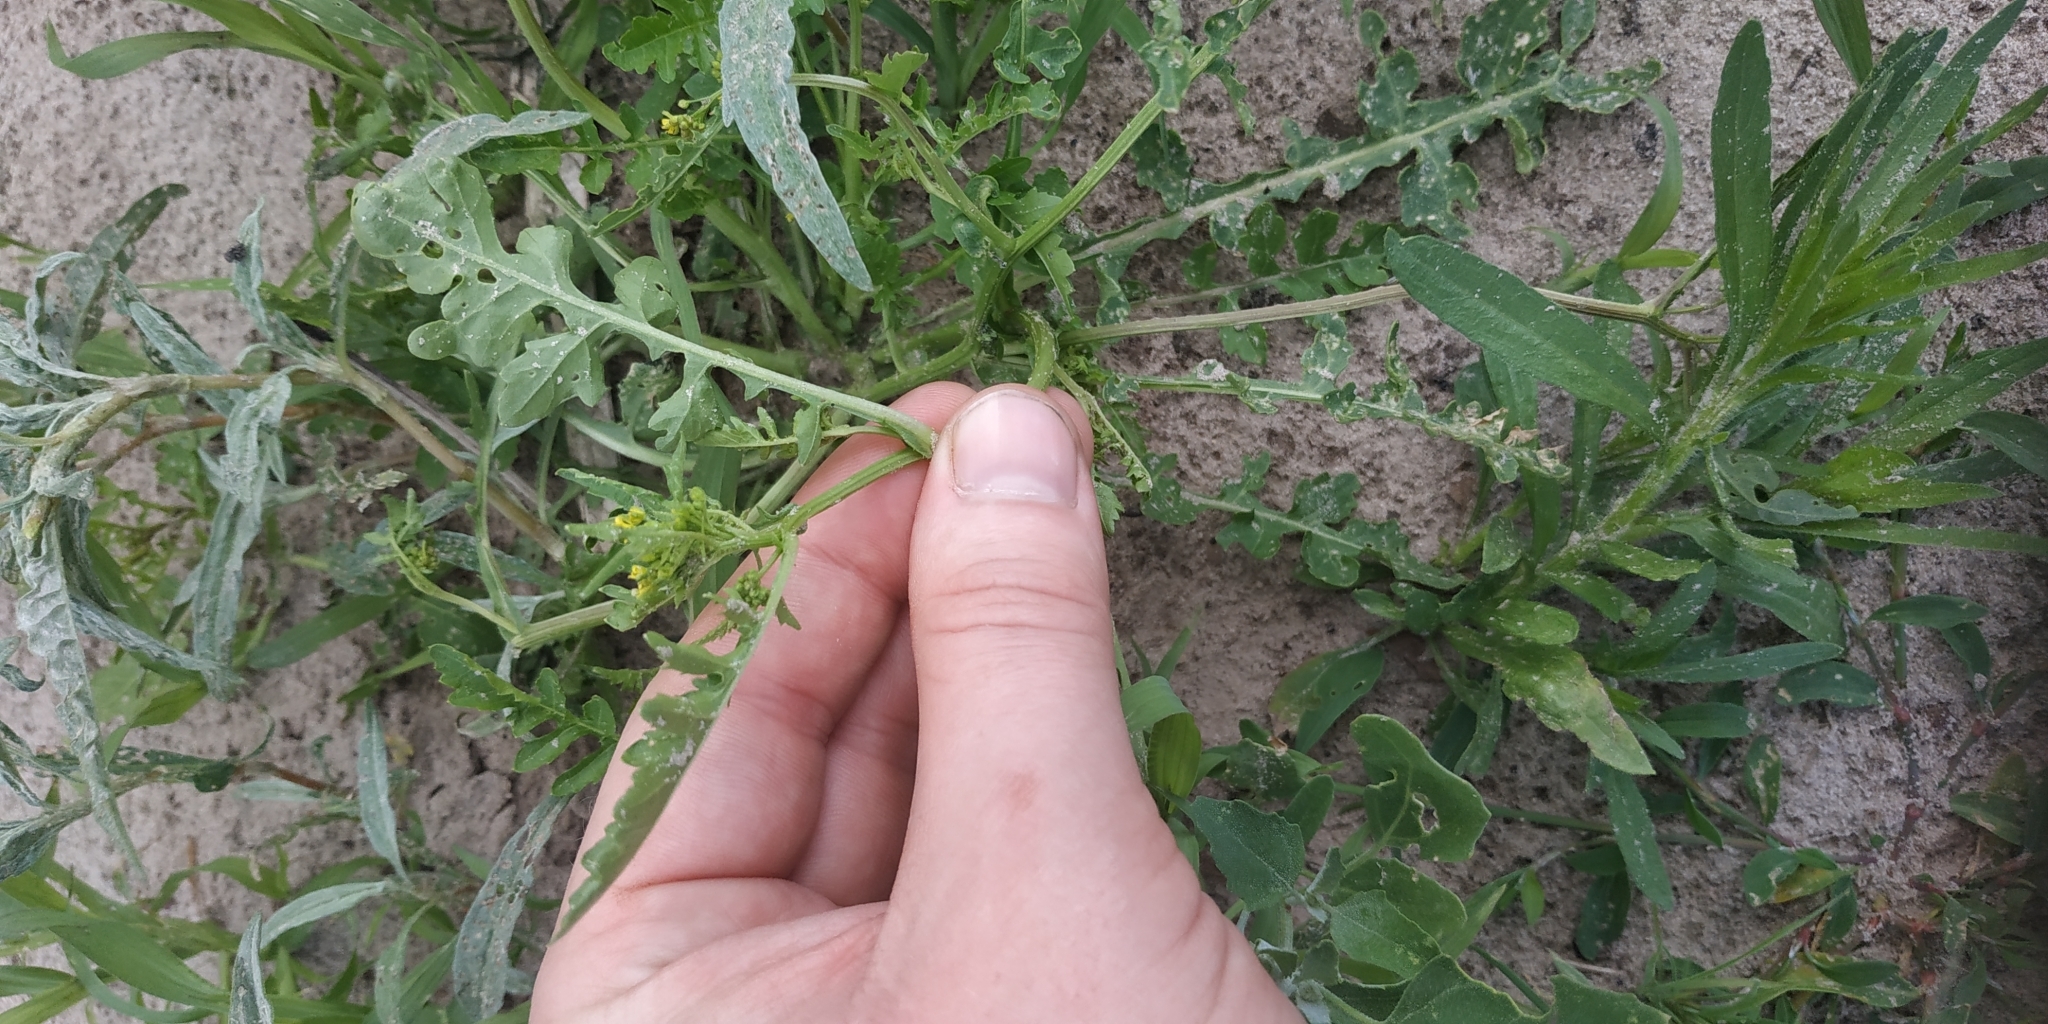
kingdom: Plantae
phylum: Tracheophyta
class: Magnoliopsida
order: Brassicales
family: Brassicaceae
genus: Rorippa
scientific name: Rorippa palustris
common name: Marsh yellow-cress
